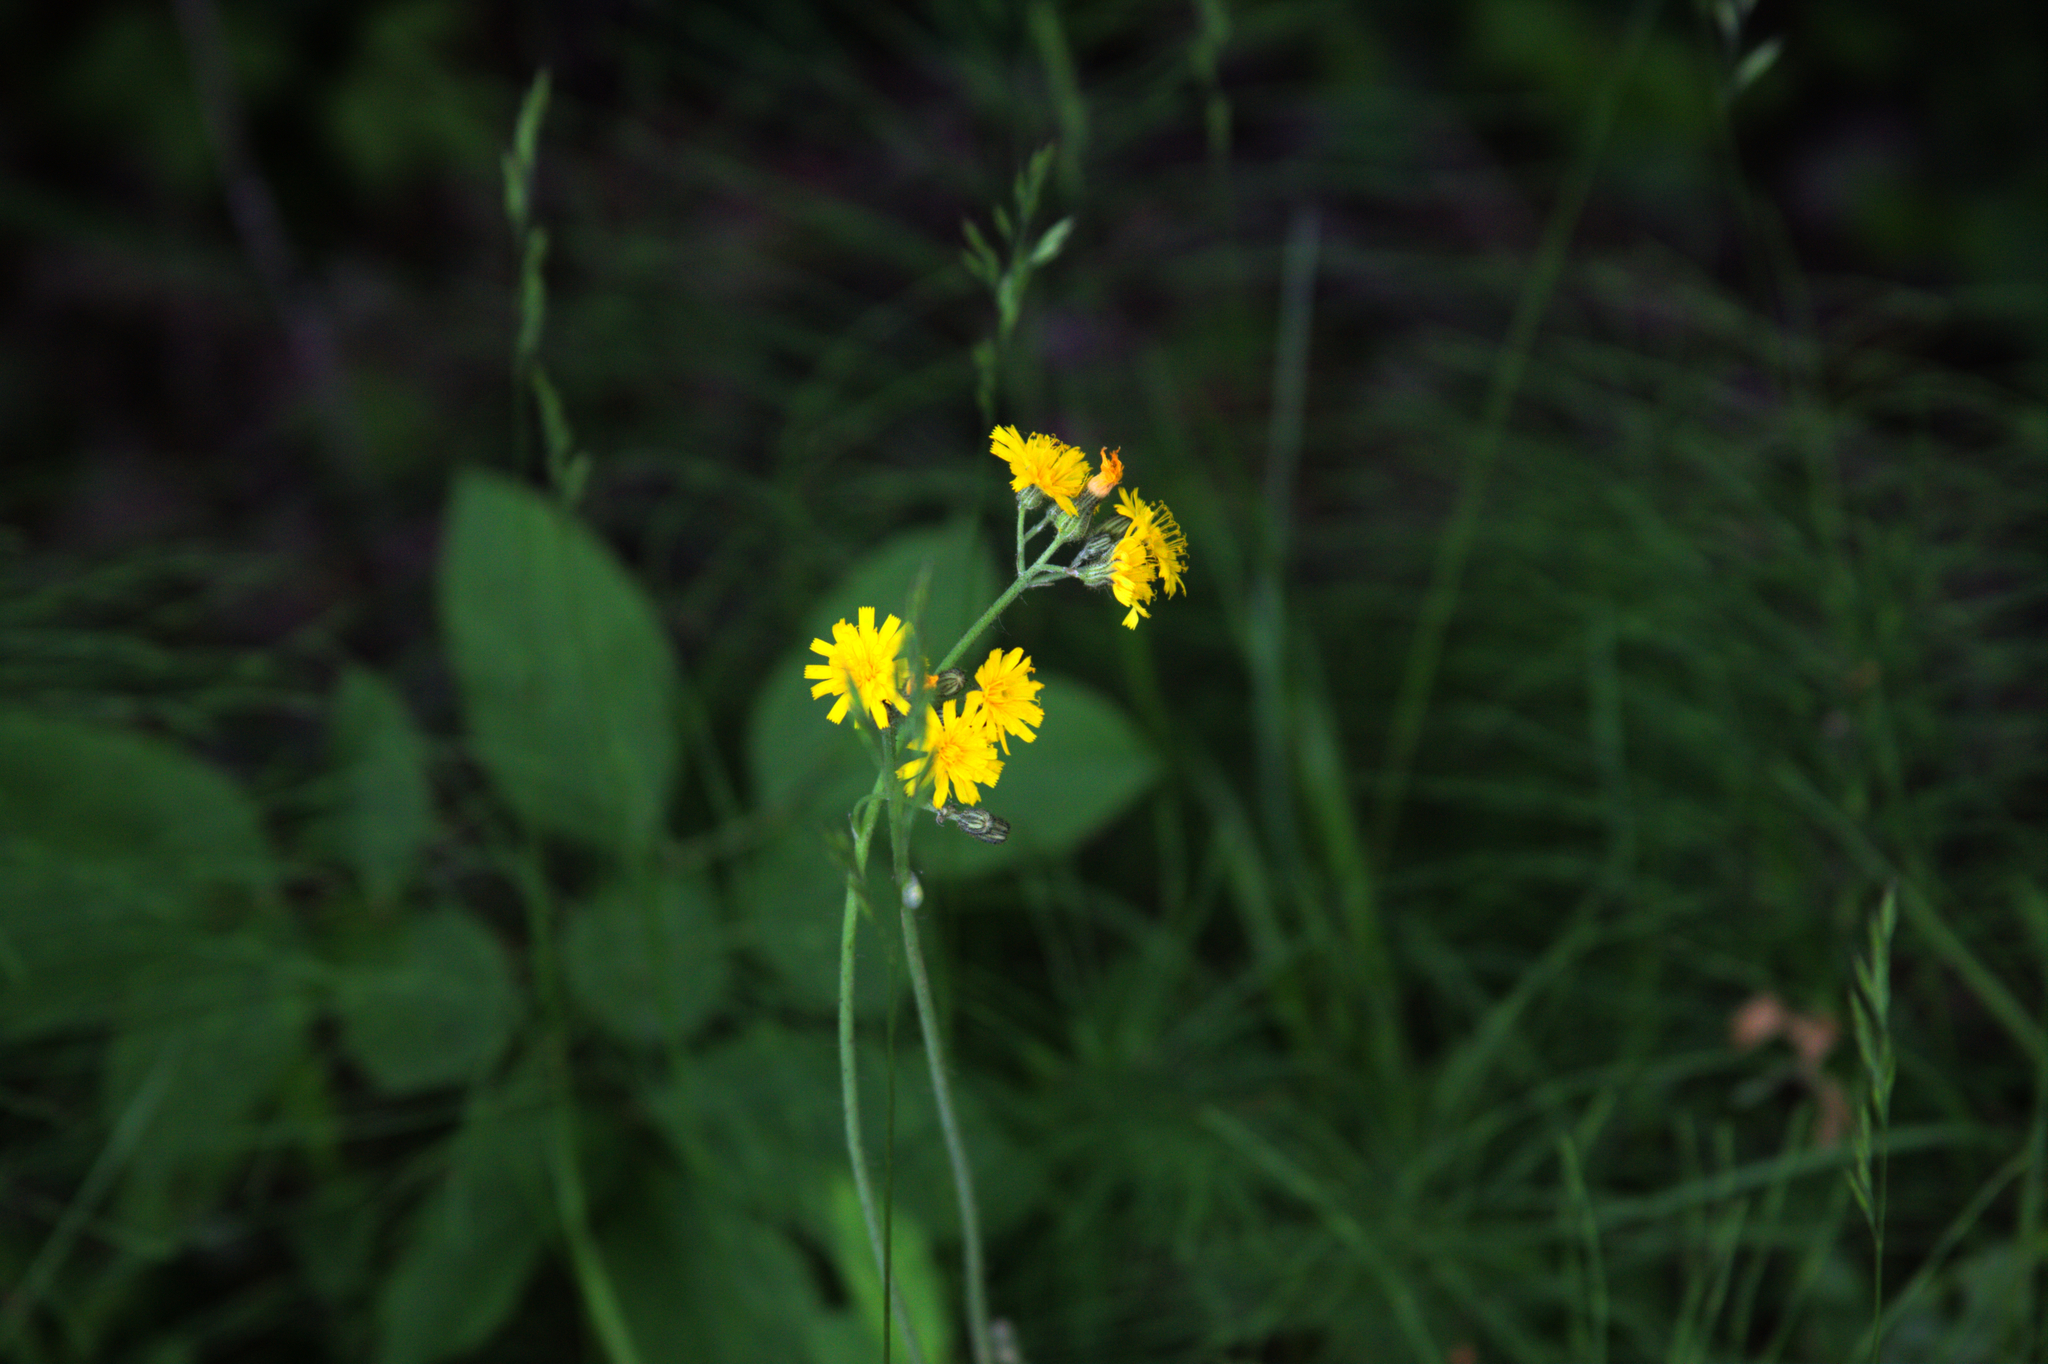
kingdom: Plantae
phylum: Tracheophyta
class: Magnoliopsida
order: Asterales
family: Asteraceae
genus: Pilosella
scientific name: Pilosella caespitosa
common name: Yellow fox-and-cubs
